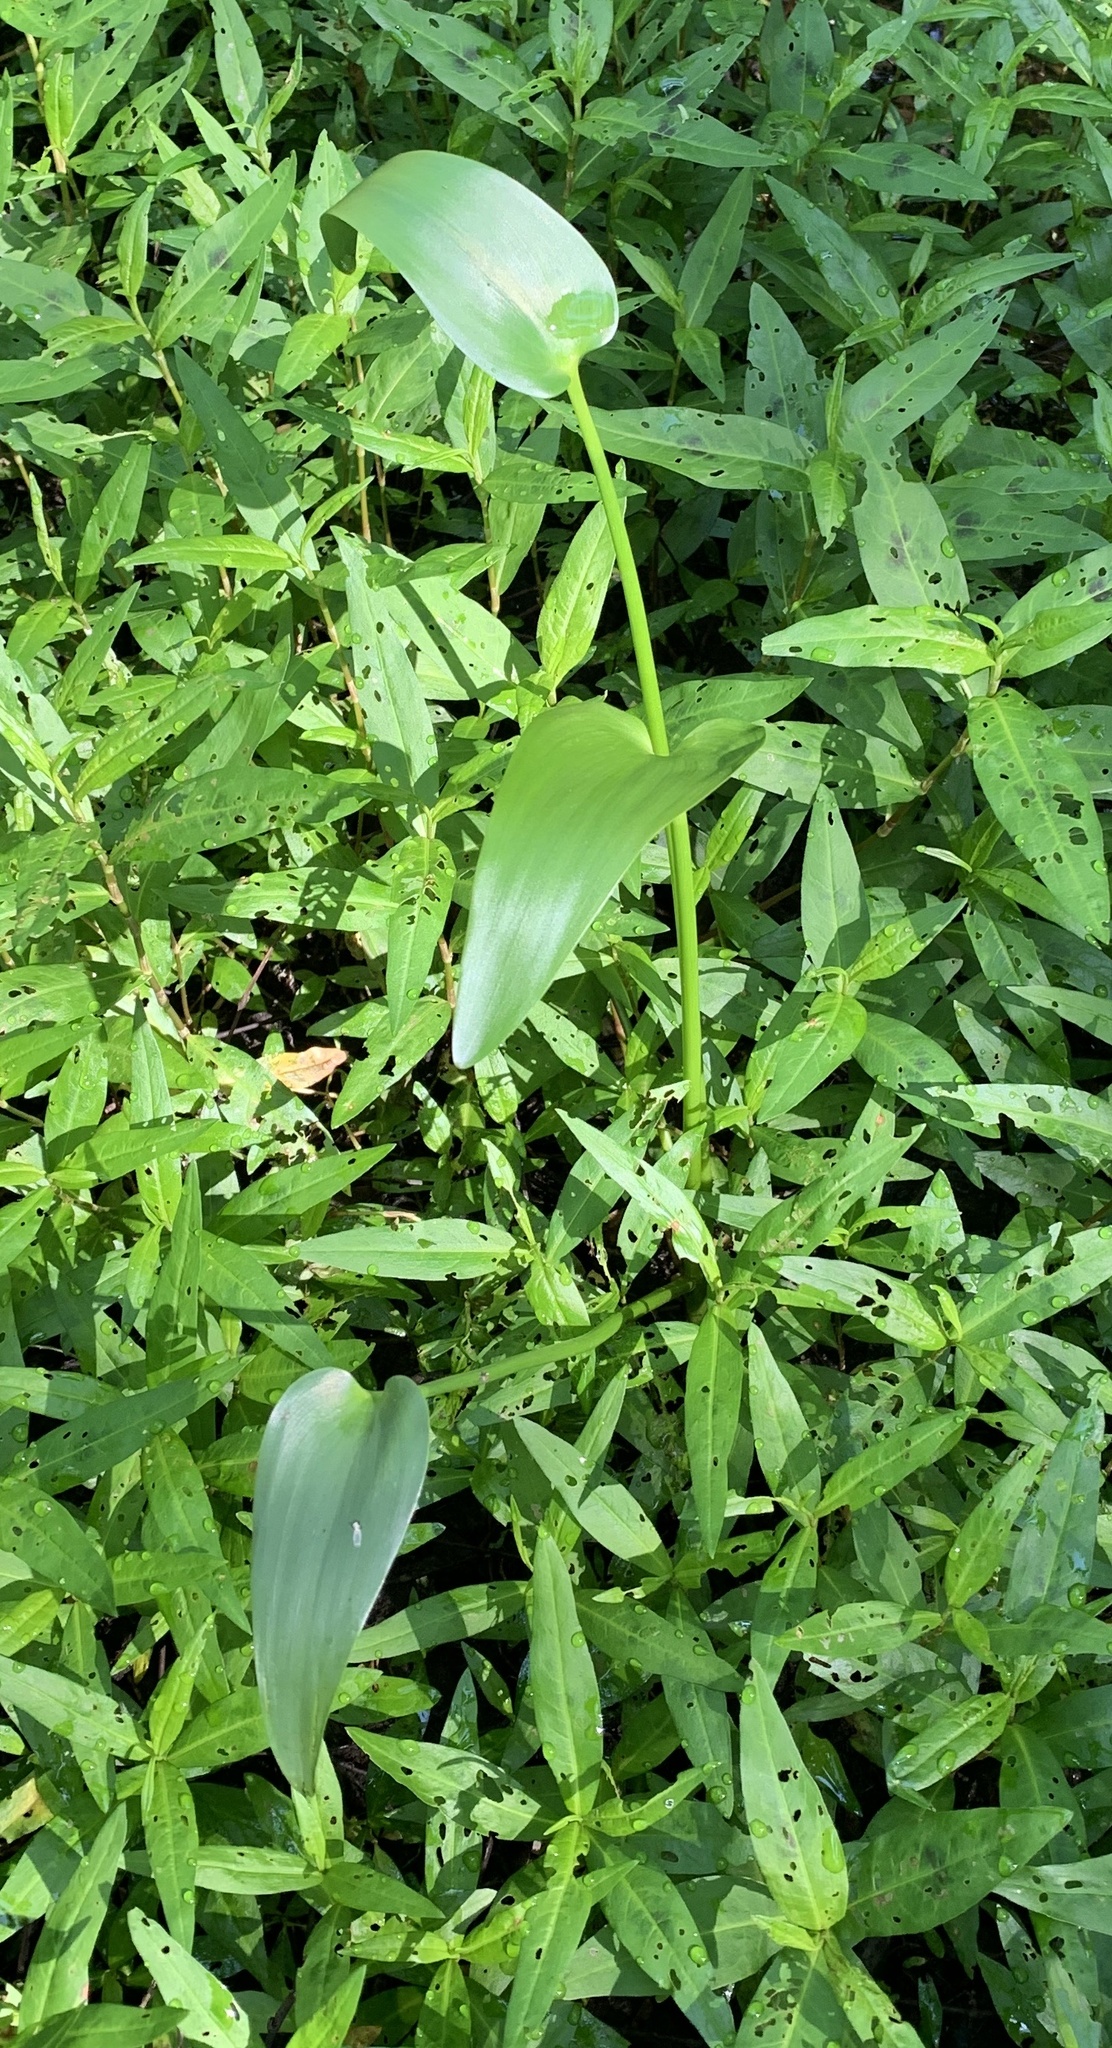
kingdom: Plantae
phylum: Tracheophyta
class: Liliopsida
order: Commelinales
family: Pontederiaceae
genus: Pontederia
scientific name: Pontederia cordata
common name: Pickerelweed
